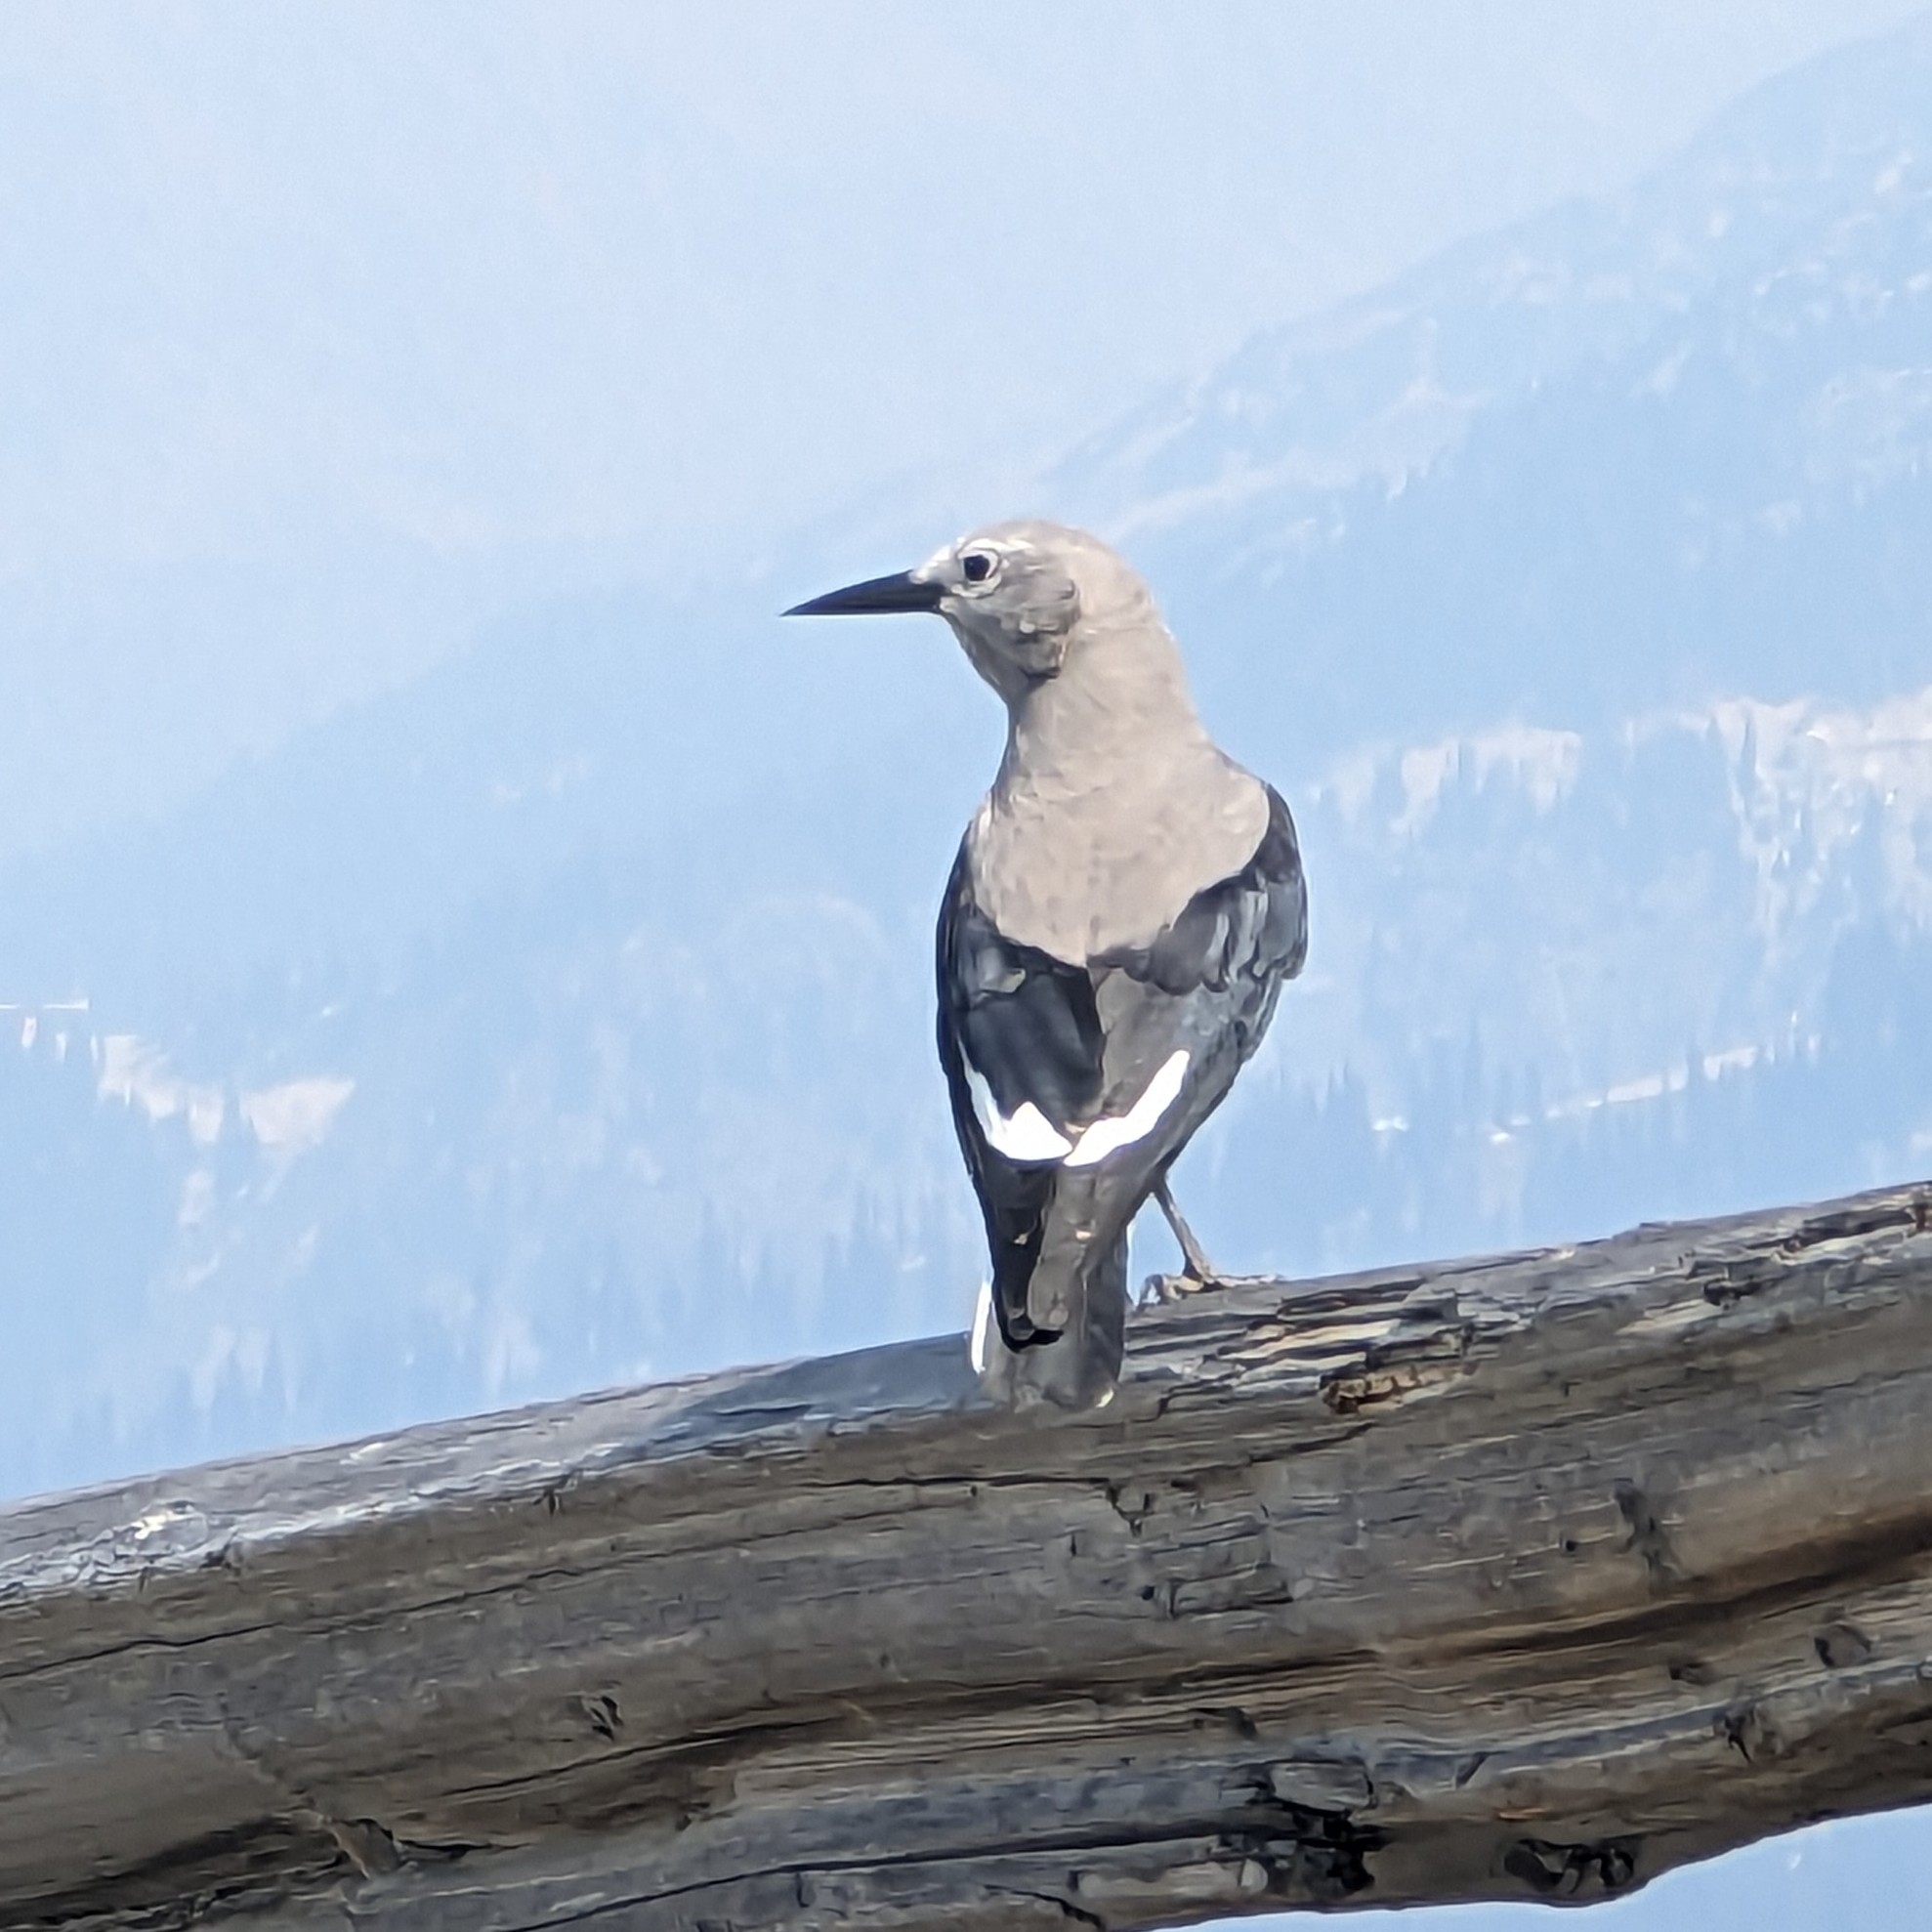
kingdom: Animalia
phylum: Chordata
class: Aves
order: Passeriformes
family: Corvidae
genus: Nucifraga
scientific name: Nucifraga columbiana
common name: Clark's nutcracker
